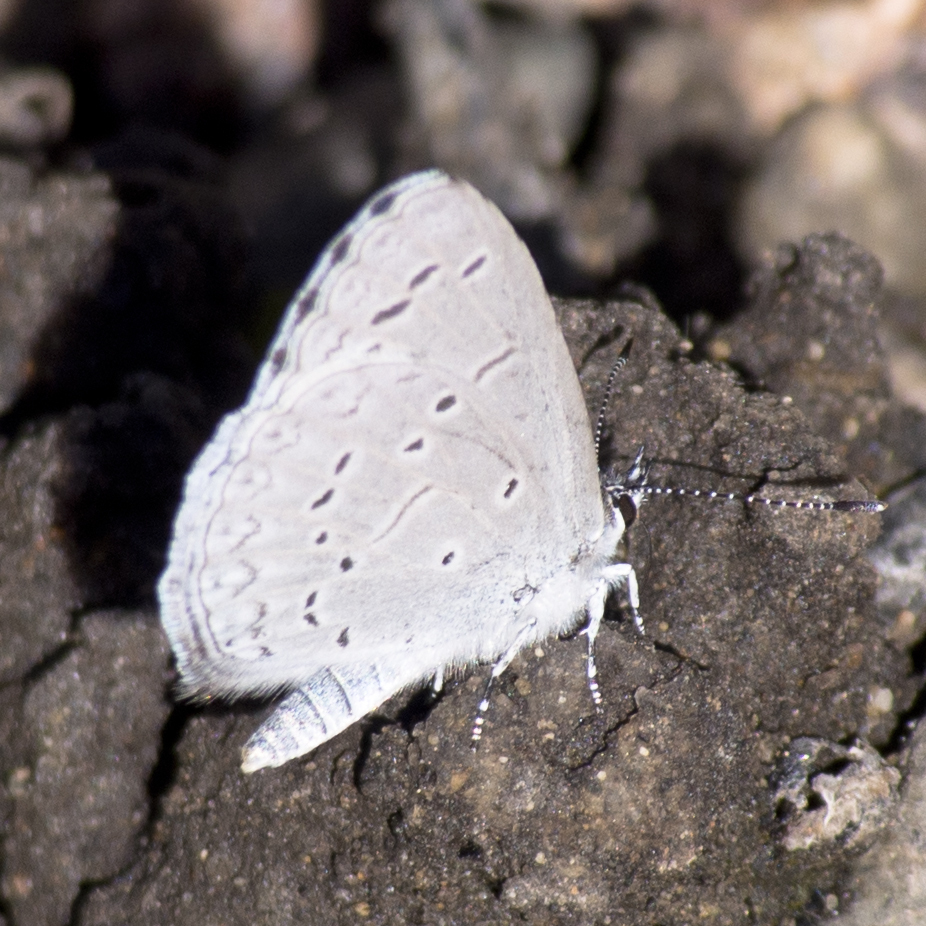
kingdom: Animalia
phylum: Arthropoda
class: Insecta
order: Lepidoptera
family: Lycaenidae
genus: Celastrina
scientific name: Celastrina argiolus
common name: Holly blue
